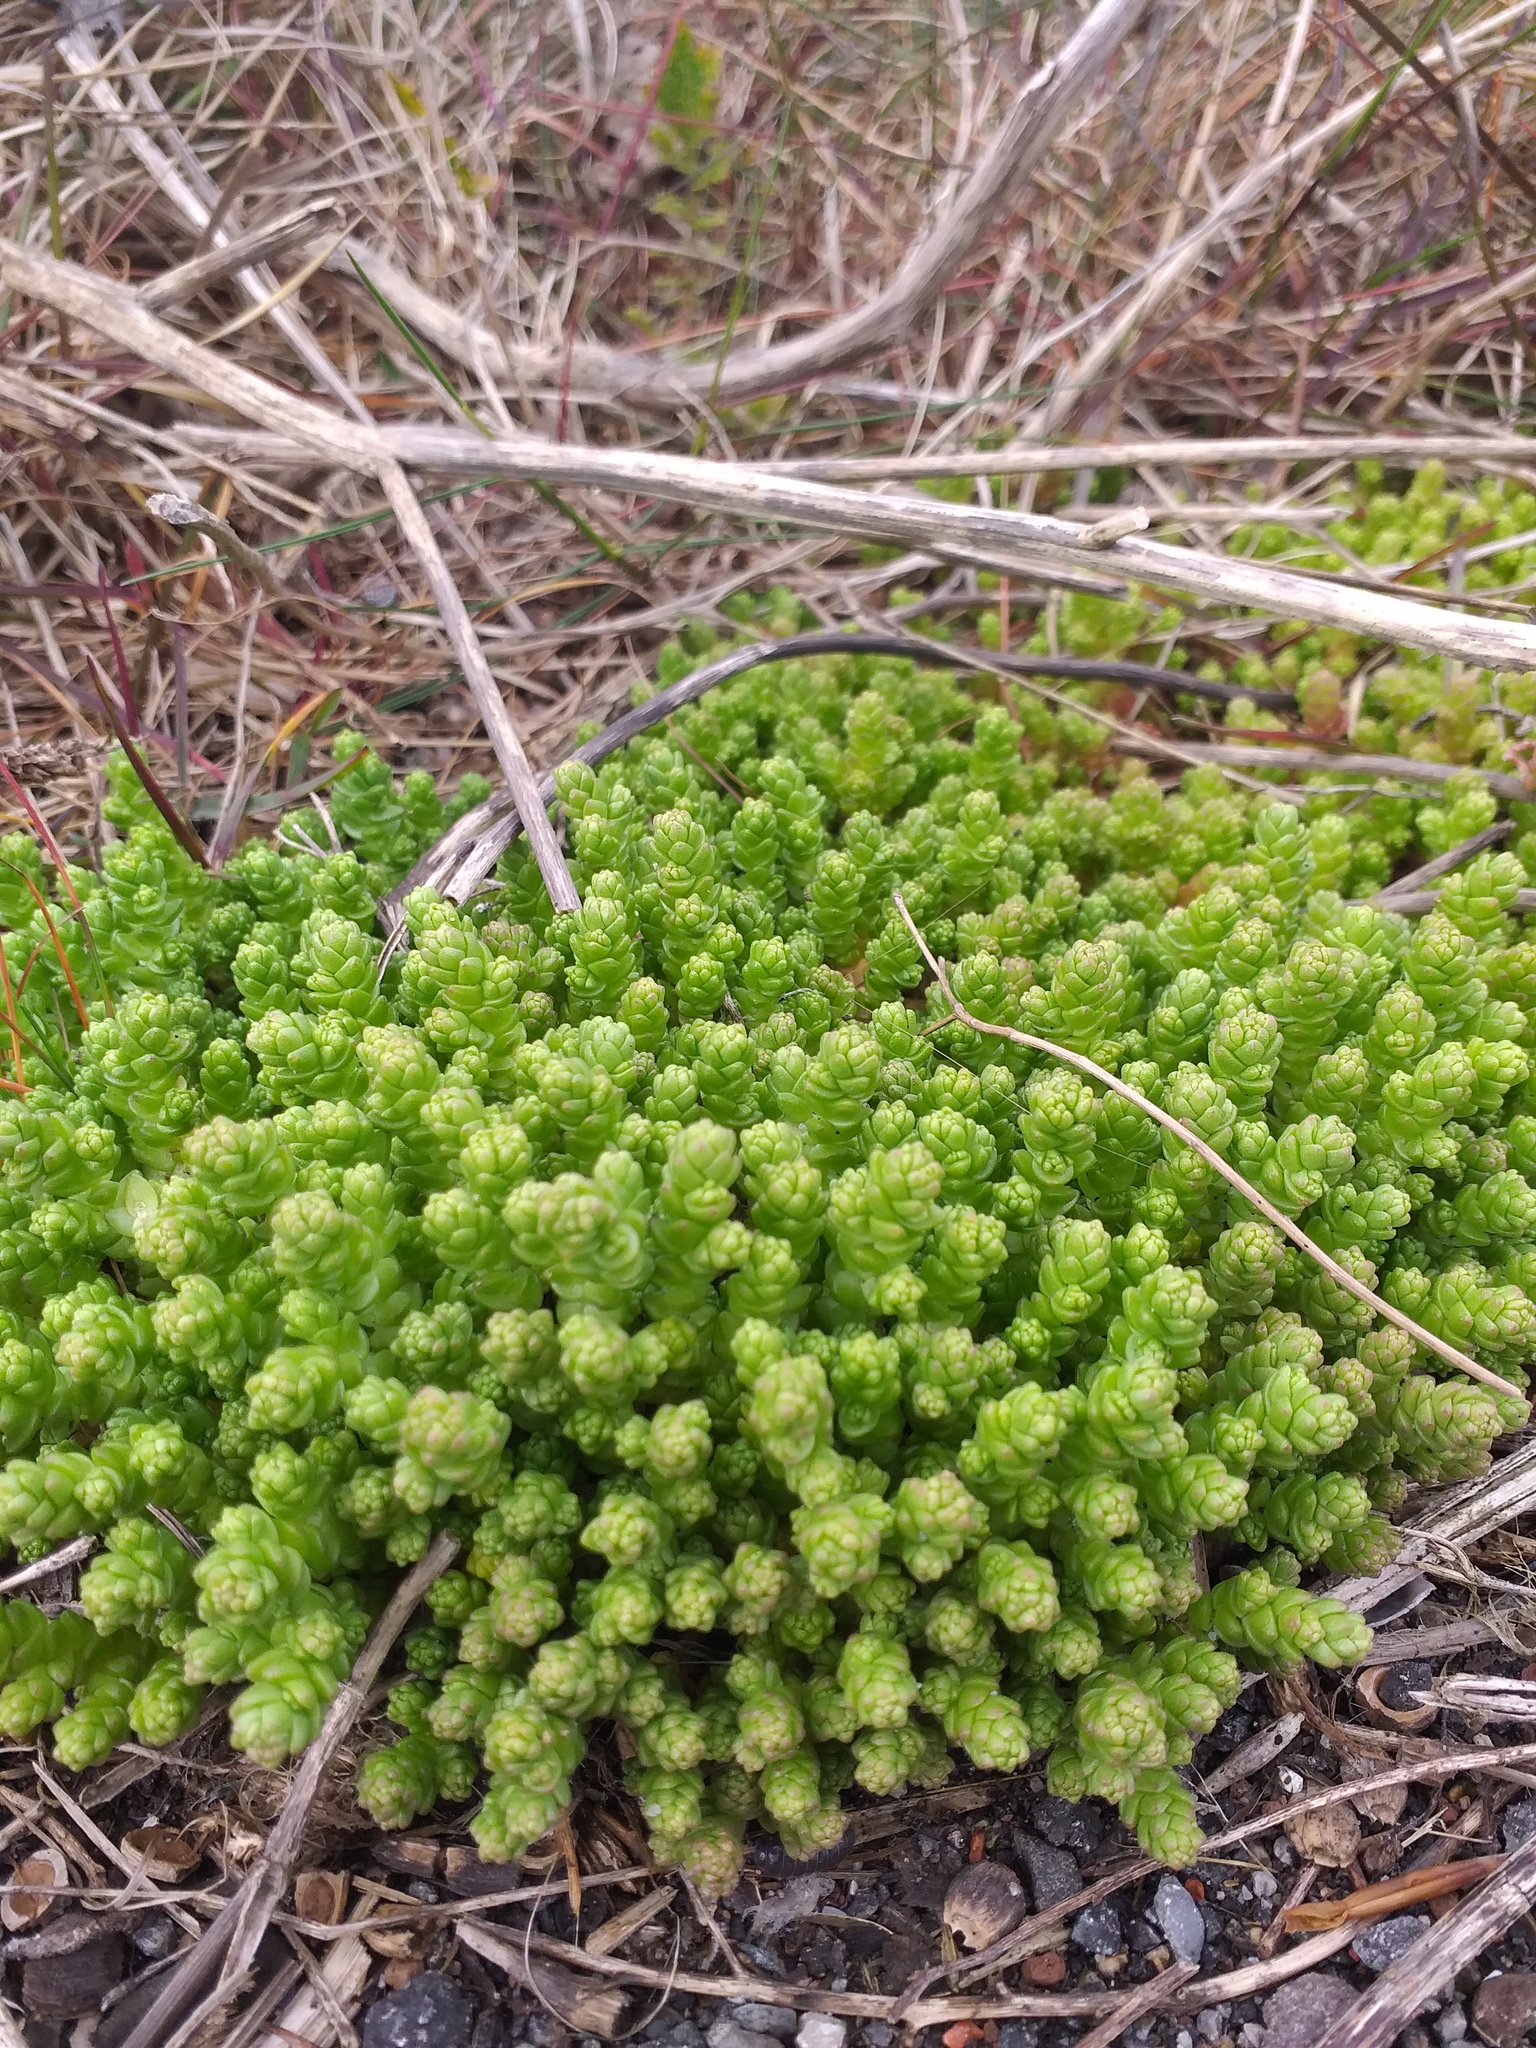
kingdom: Plantae
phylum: Tracheophyta
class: Magnoliopsida
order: Saxifragales
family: Crassulaceae
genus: Sedum
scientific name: Sedum acre
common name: Biting stonecrop
